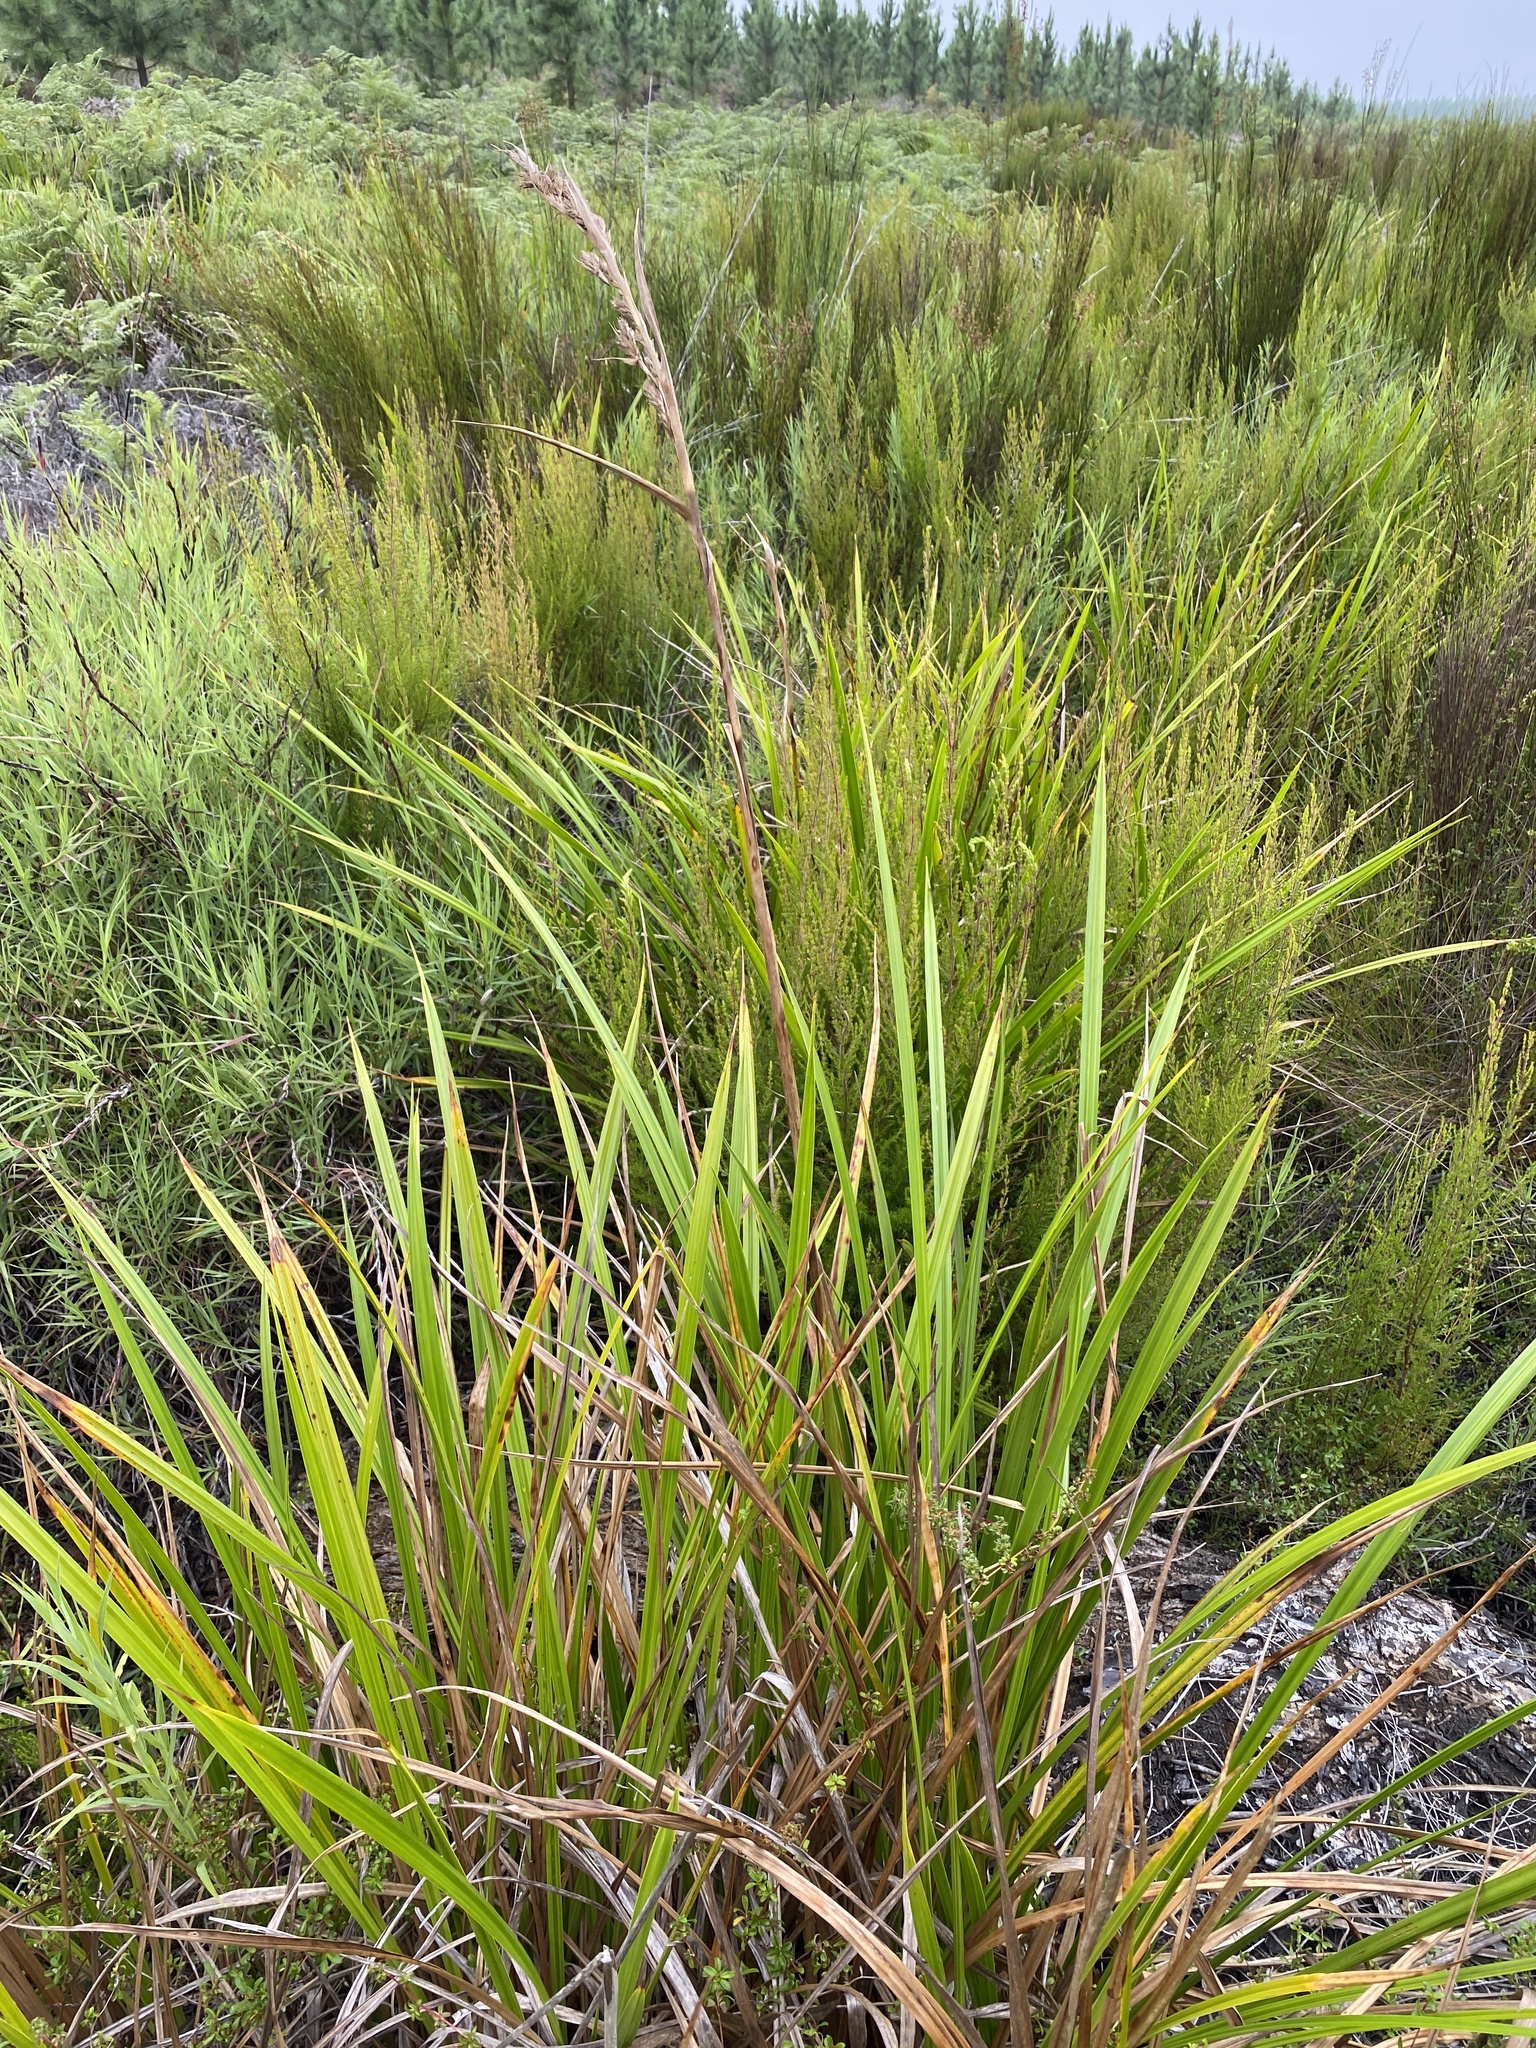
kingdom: Plantae
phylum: Tracheophyta
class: Liliopsida
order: Poales
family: Cyperaceae
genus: Carpha
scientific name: Carpha glomerata
